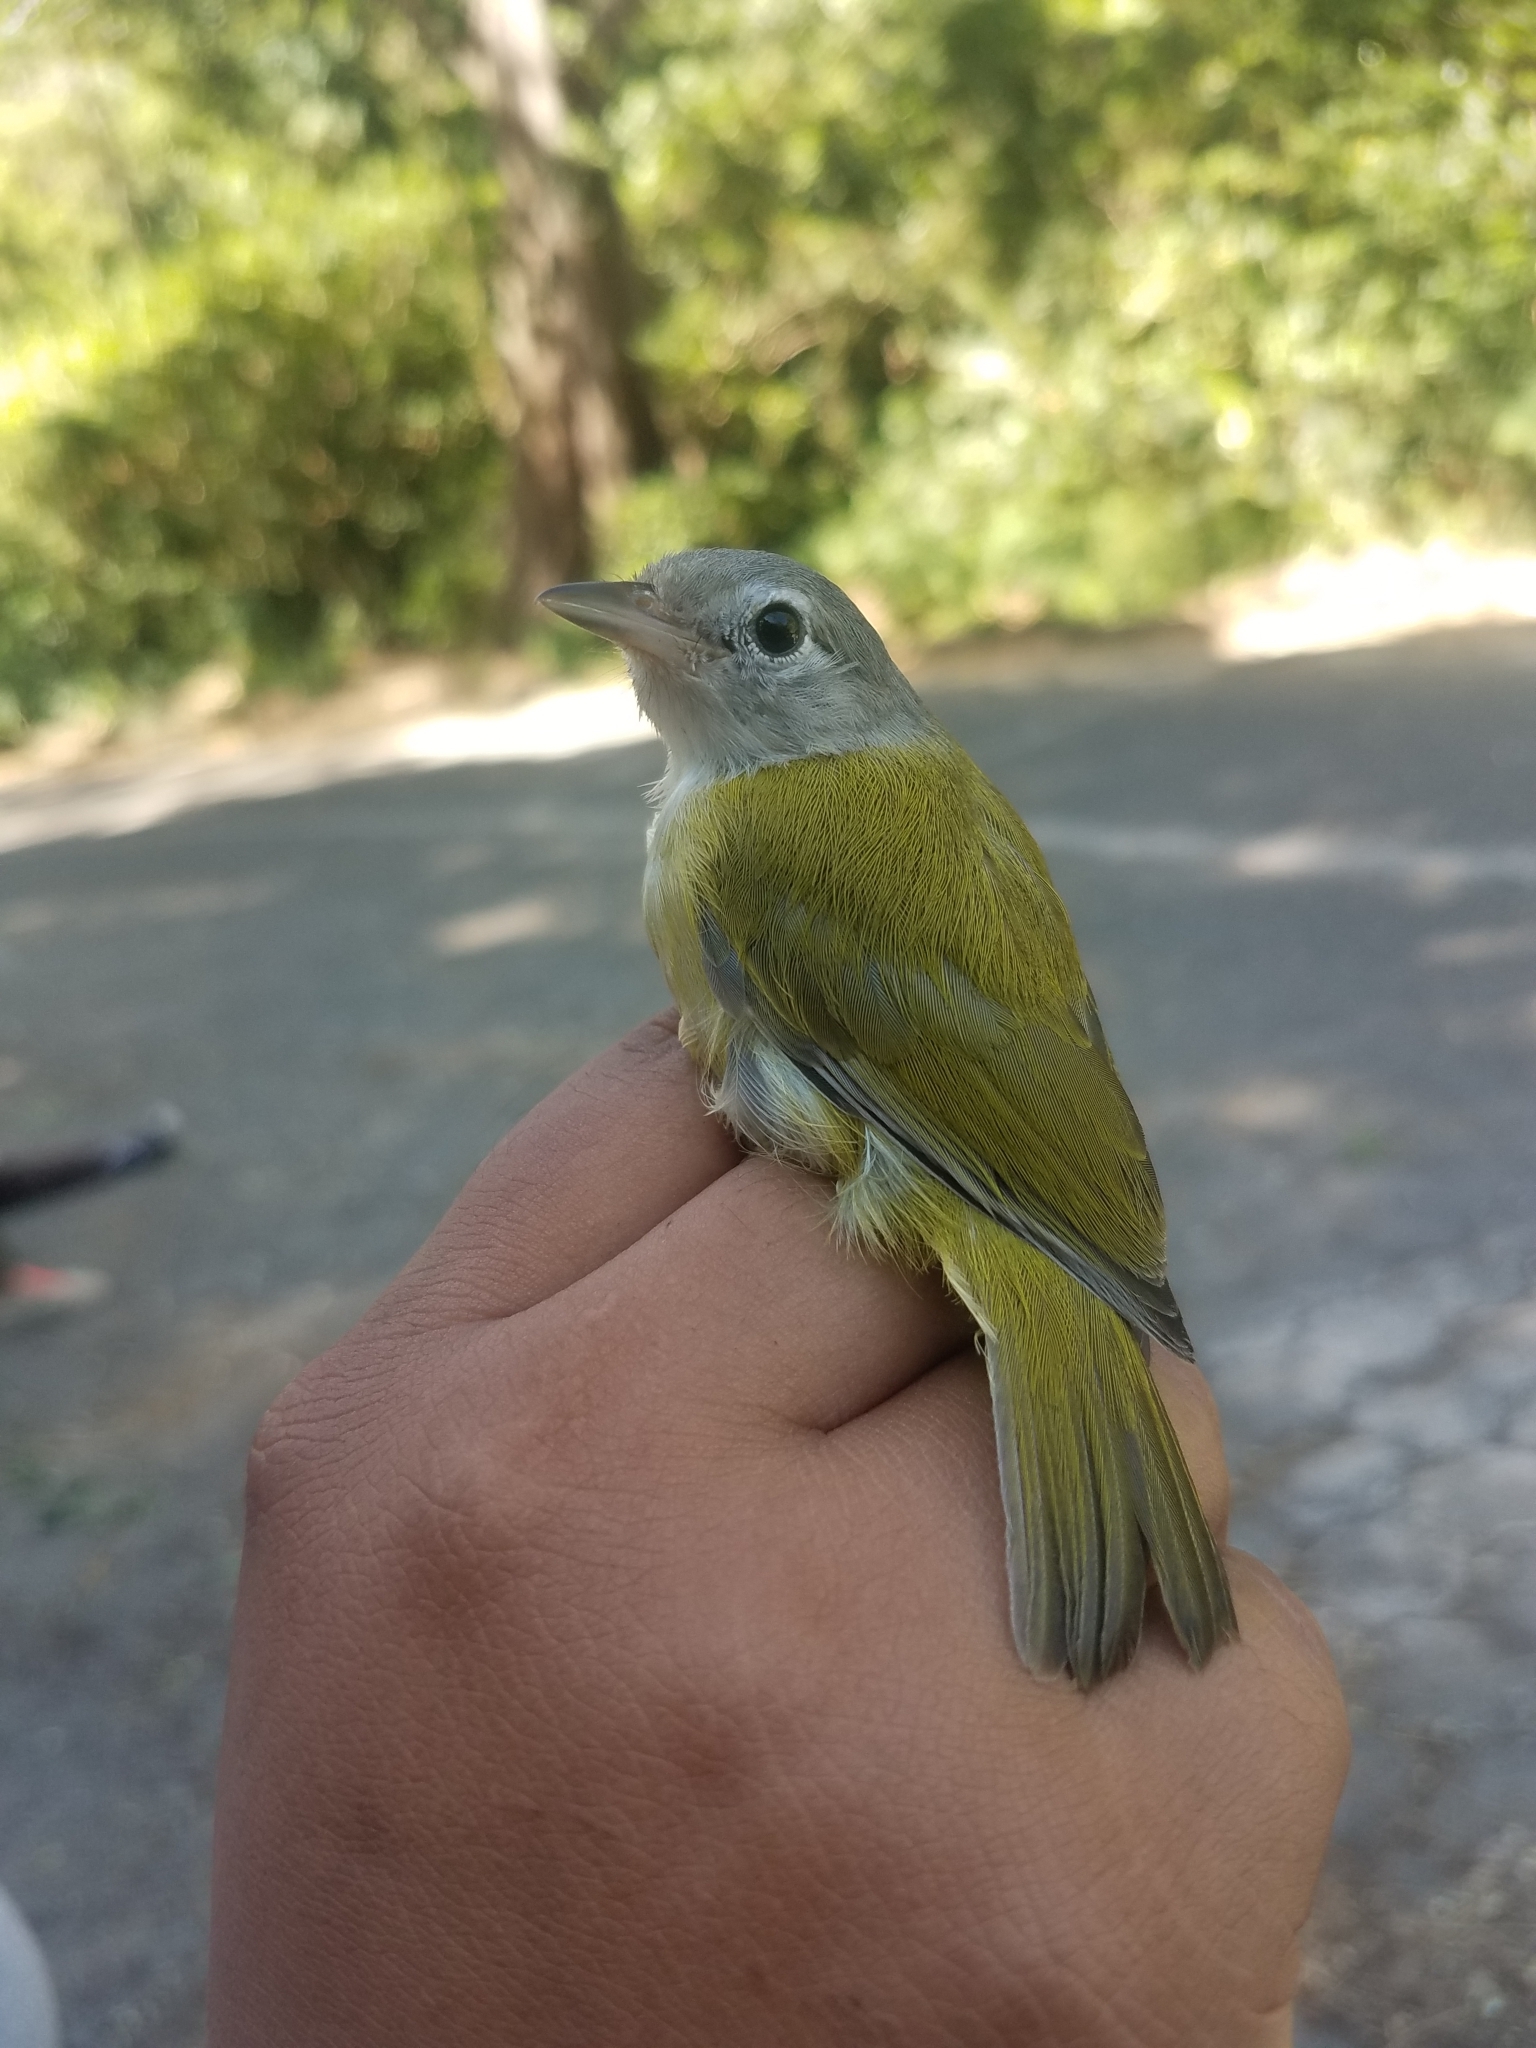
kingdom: Animalia
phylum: Chordata
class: Aves
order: Passeriformes
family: Vireonidae
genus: Hylophilus
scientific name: Hylophilus decurtatus
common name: Lesser greenlet
